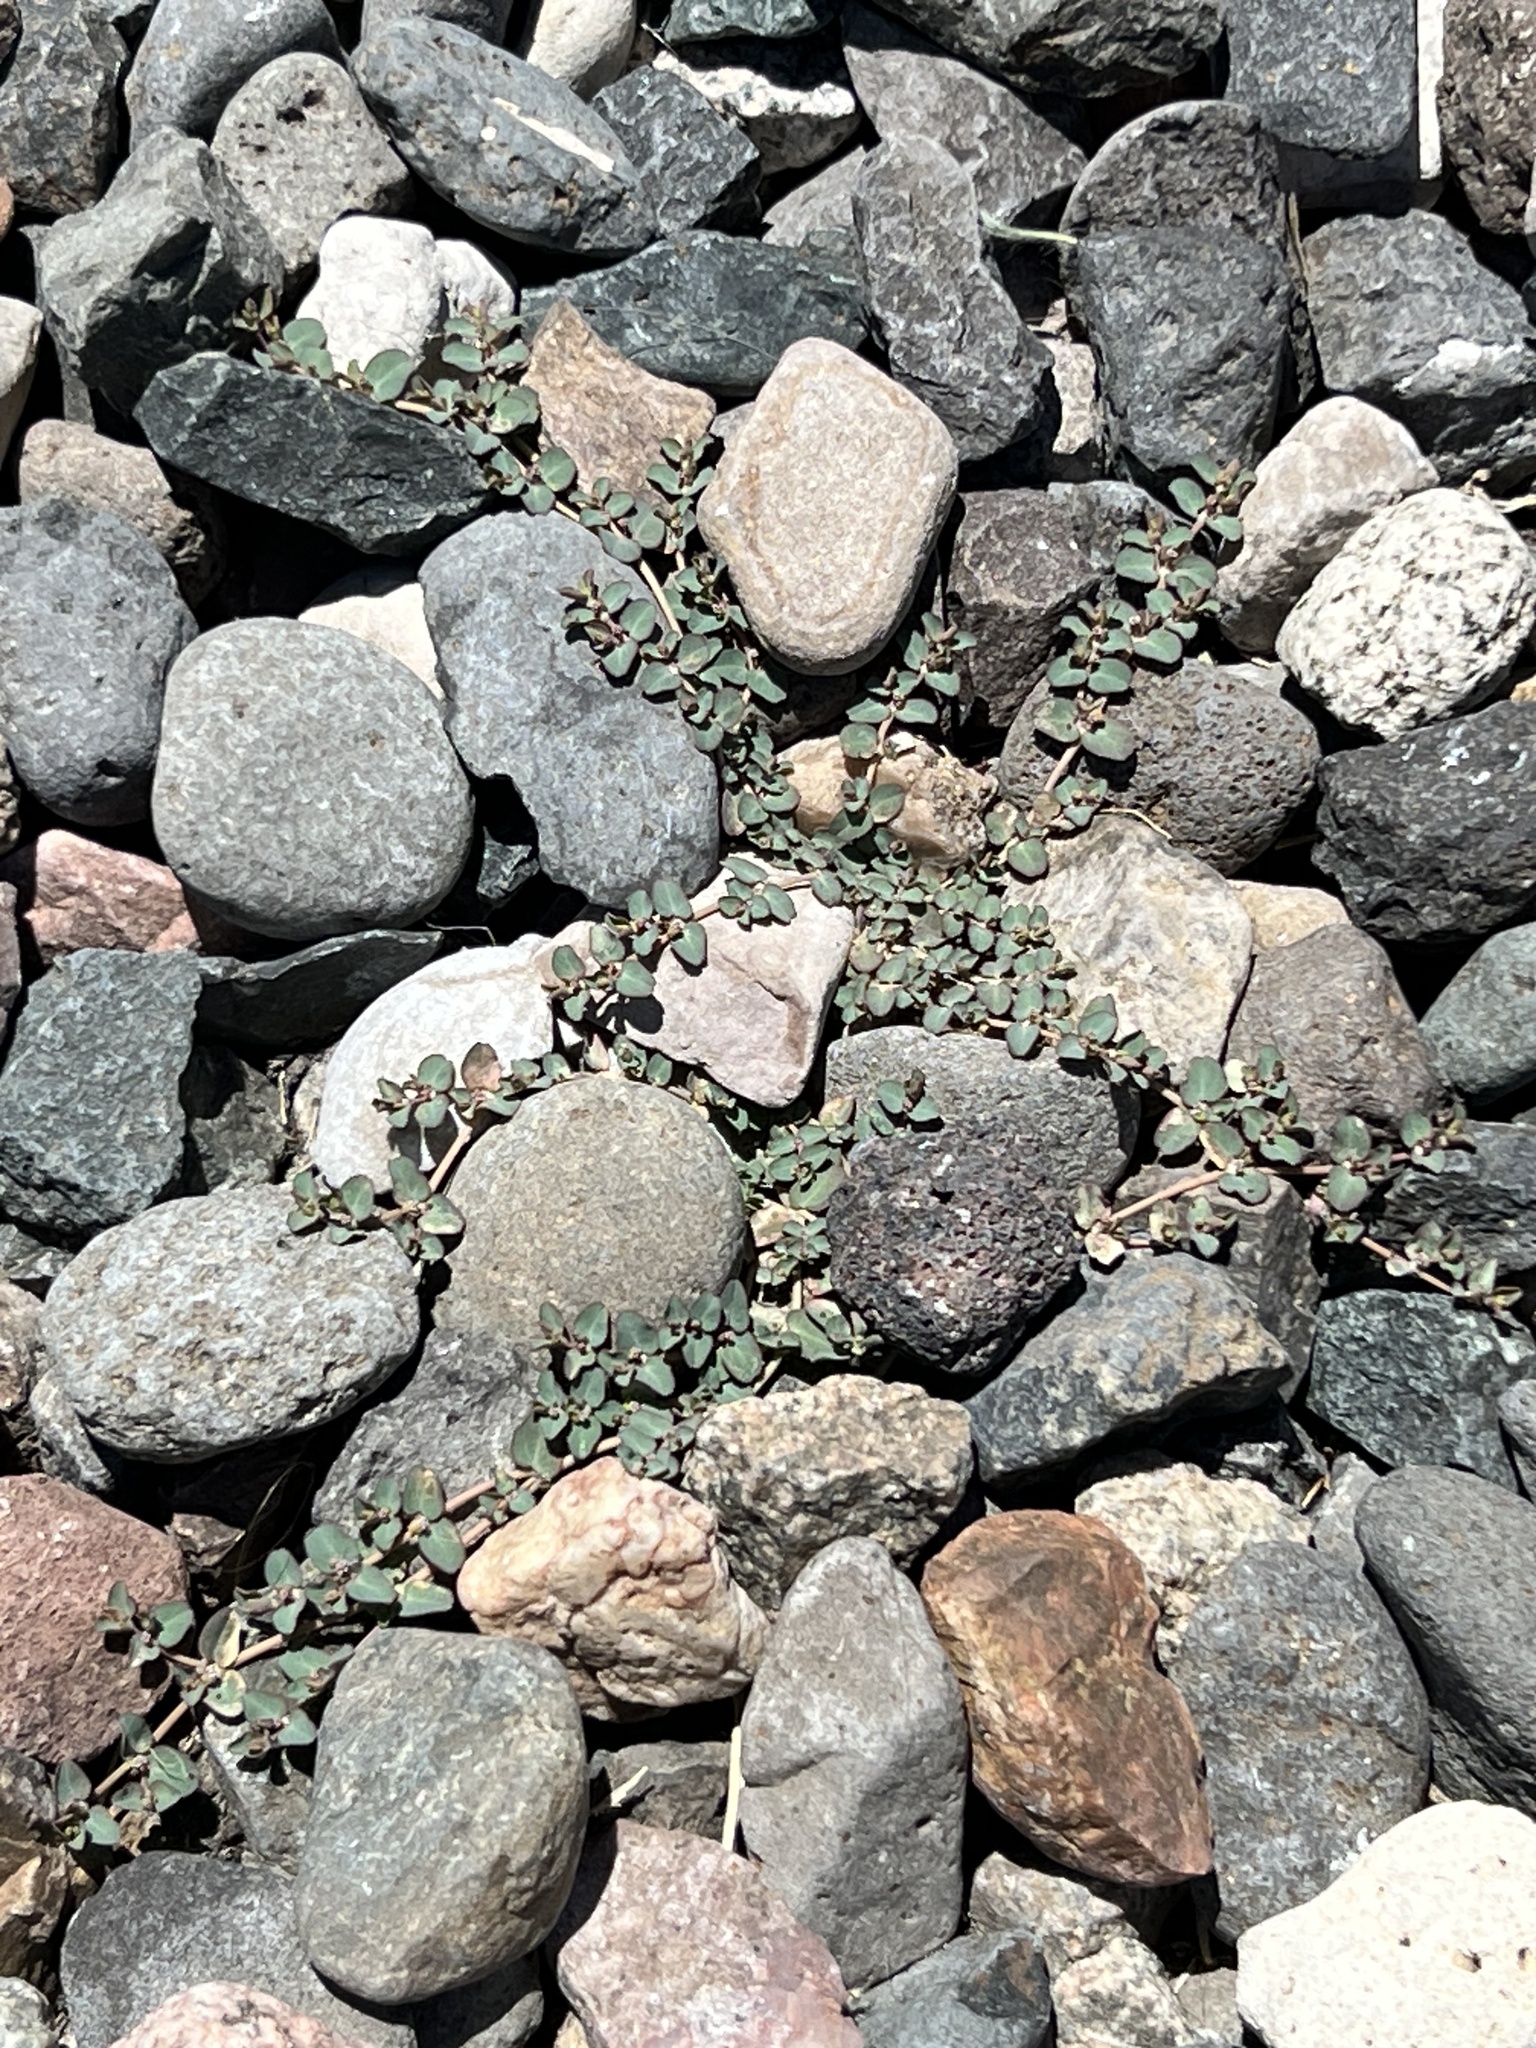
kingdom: Plantae
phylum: Tracheophyta
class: Magnoliopsida
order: Malpighiales
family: Euphorbiaceae
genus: Euphorbia
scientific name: Euphorbia serpens
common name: Matted sandmat
